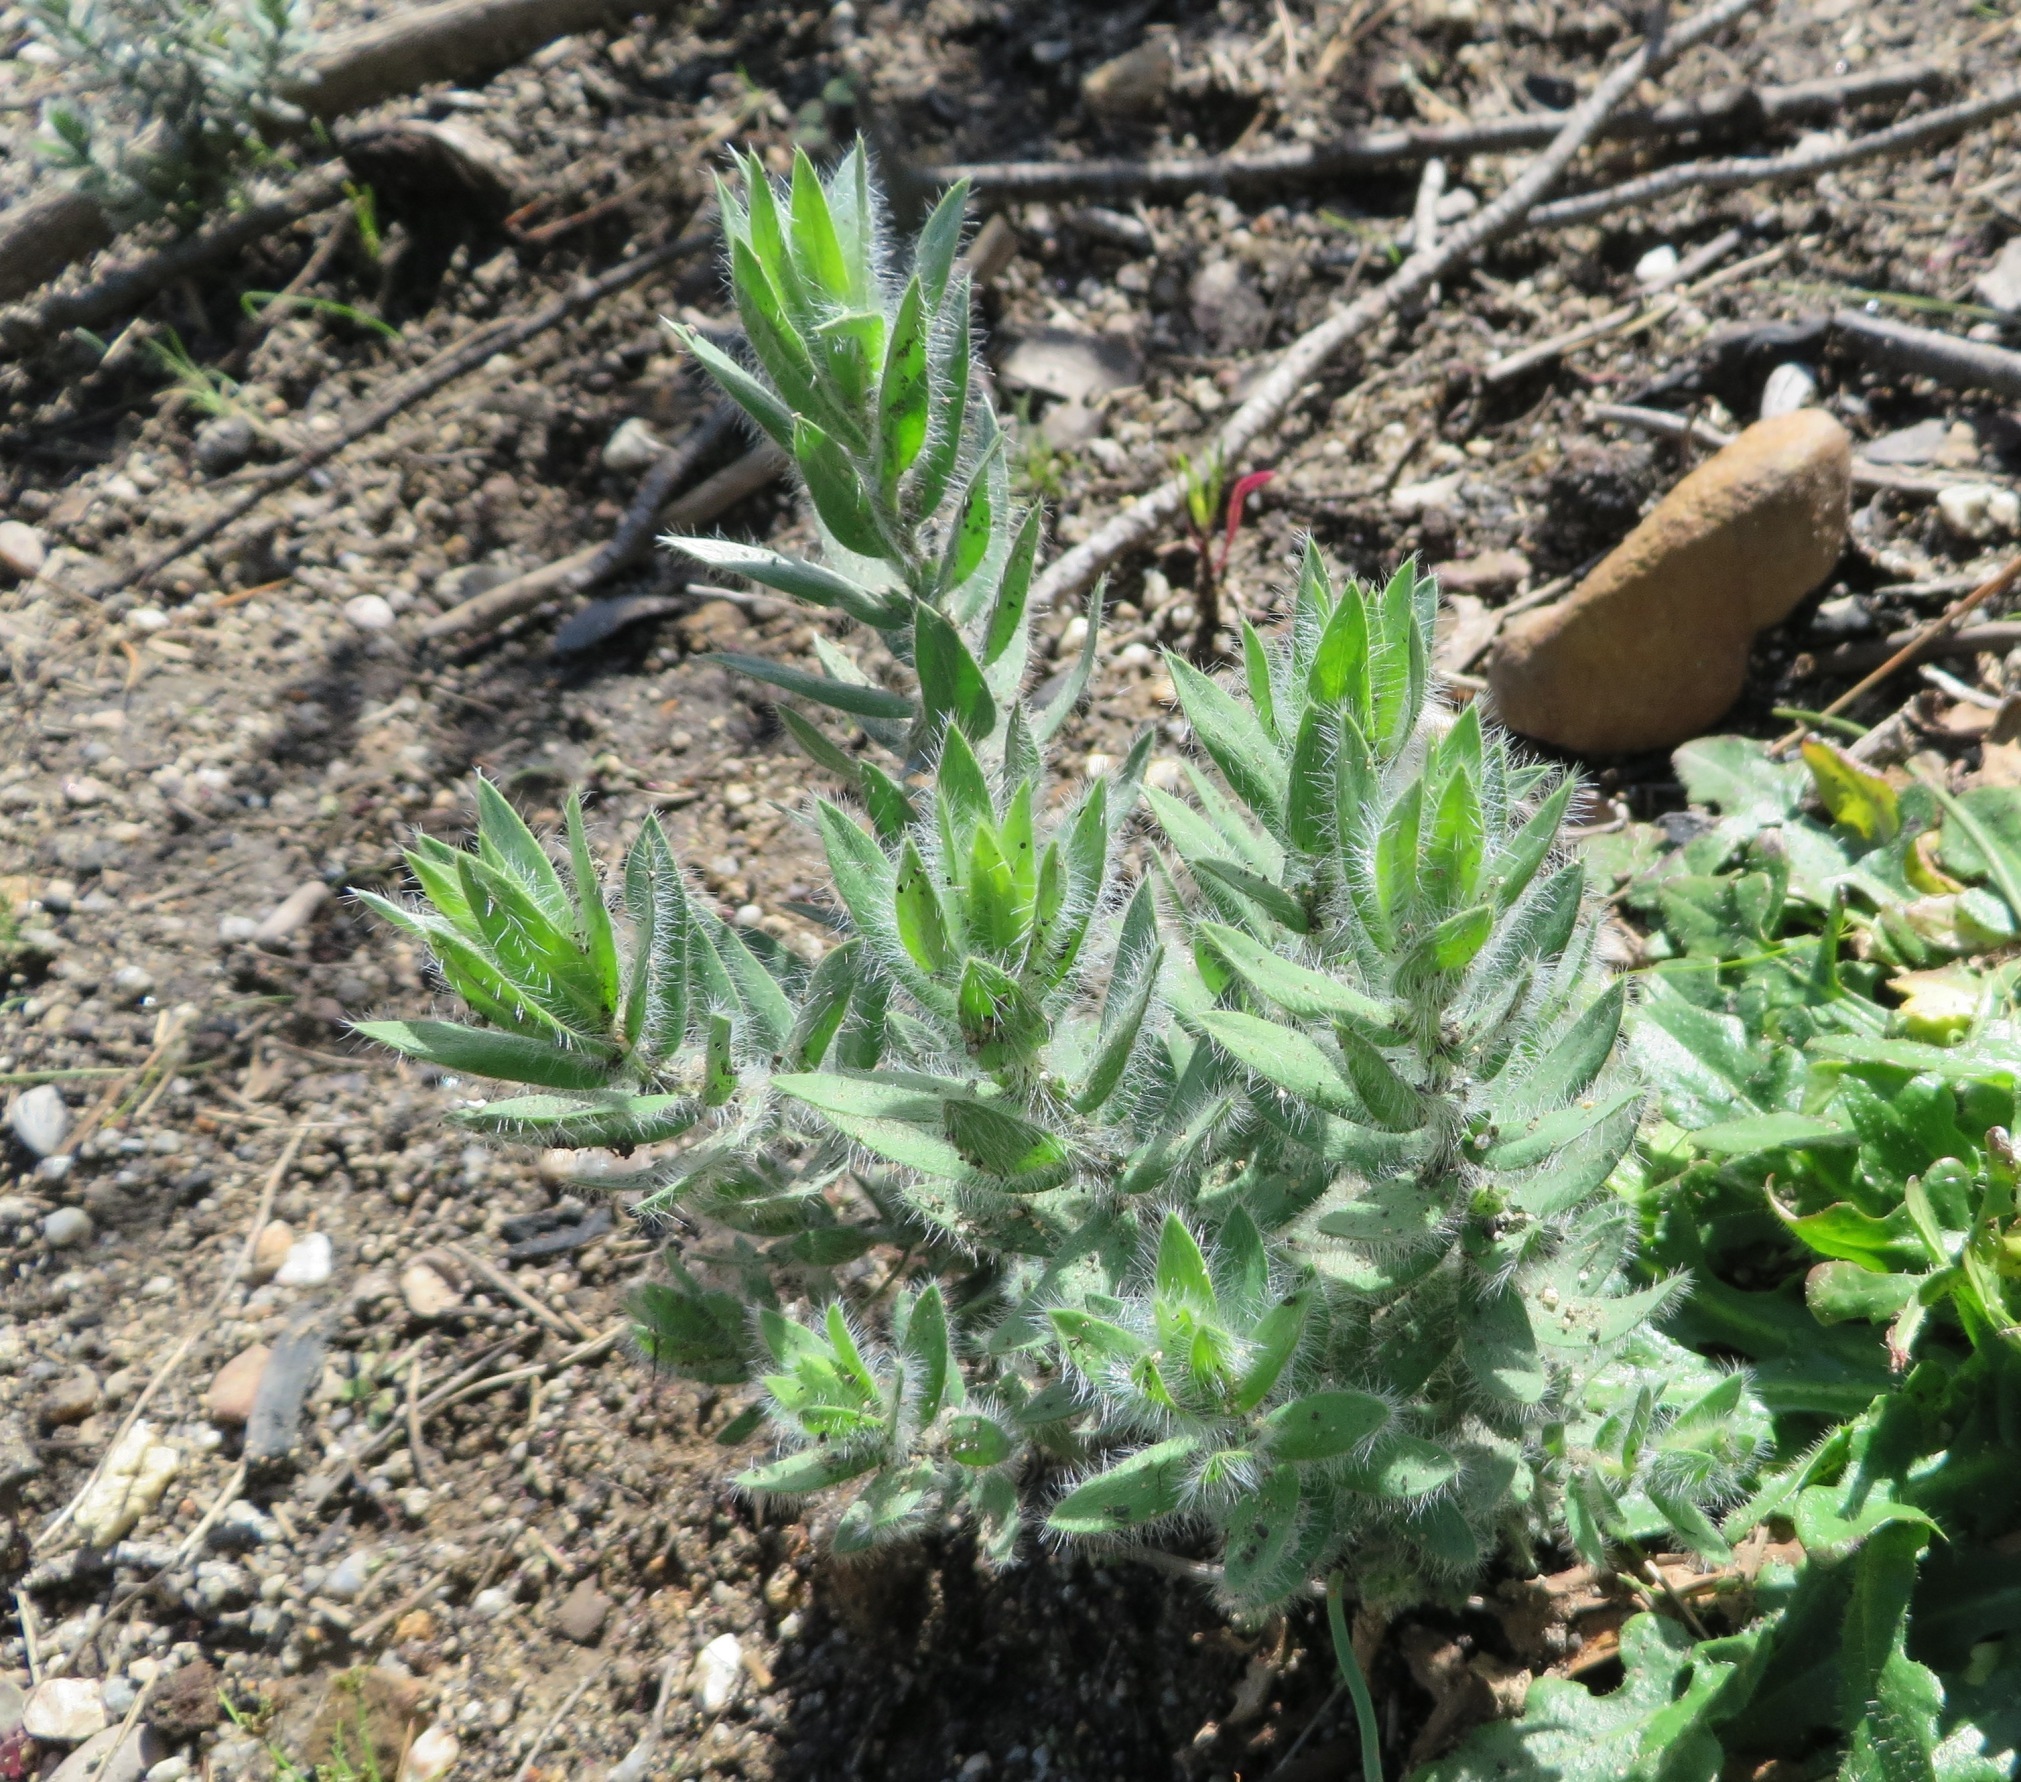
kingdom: Plantae
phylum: Tracheophyta
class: Magnoliopsida
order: Fabales
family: Fabaceae
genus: Xiphotheca
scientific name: Xiphotheca lanceolata
